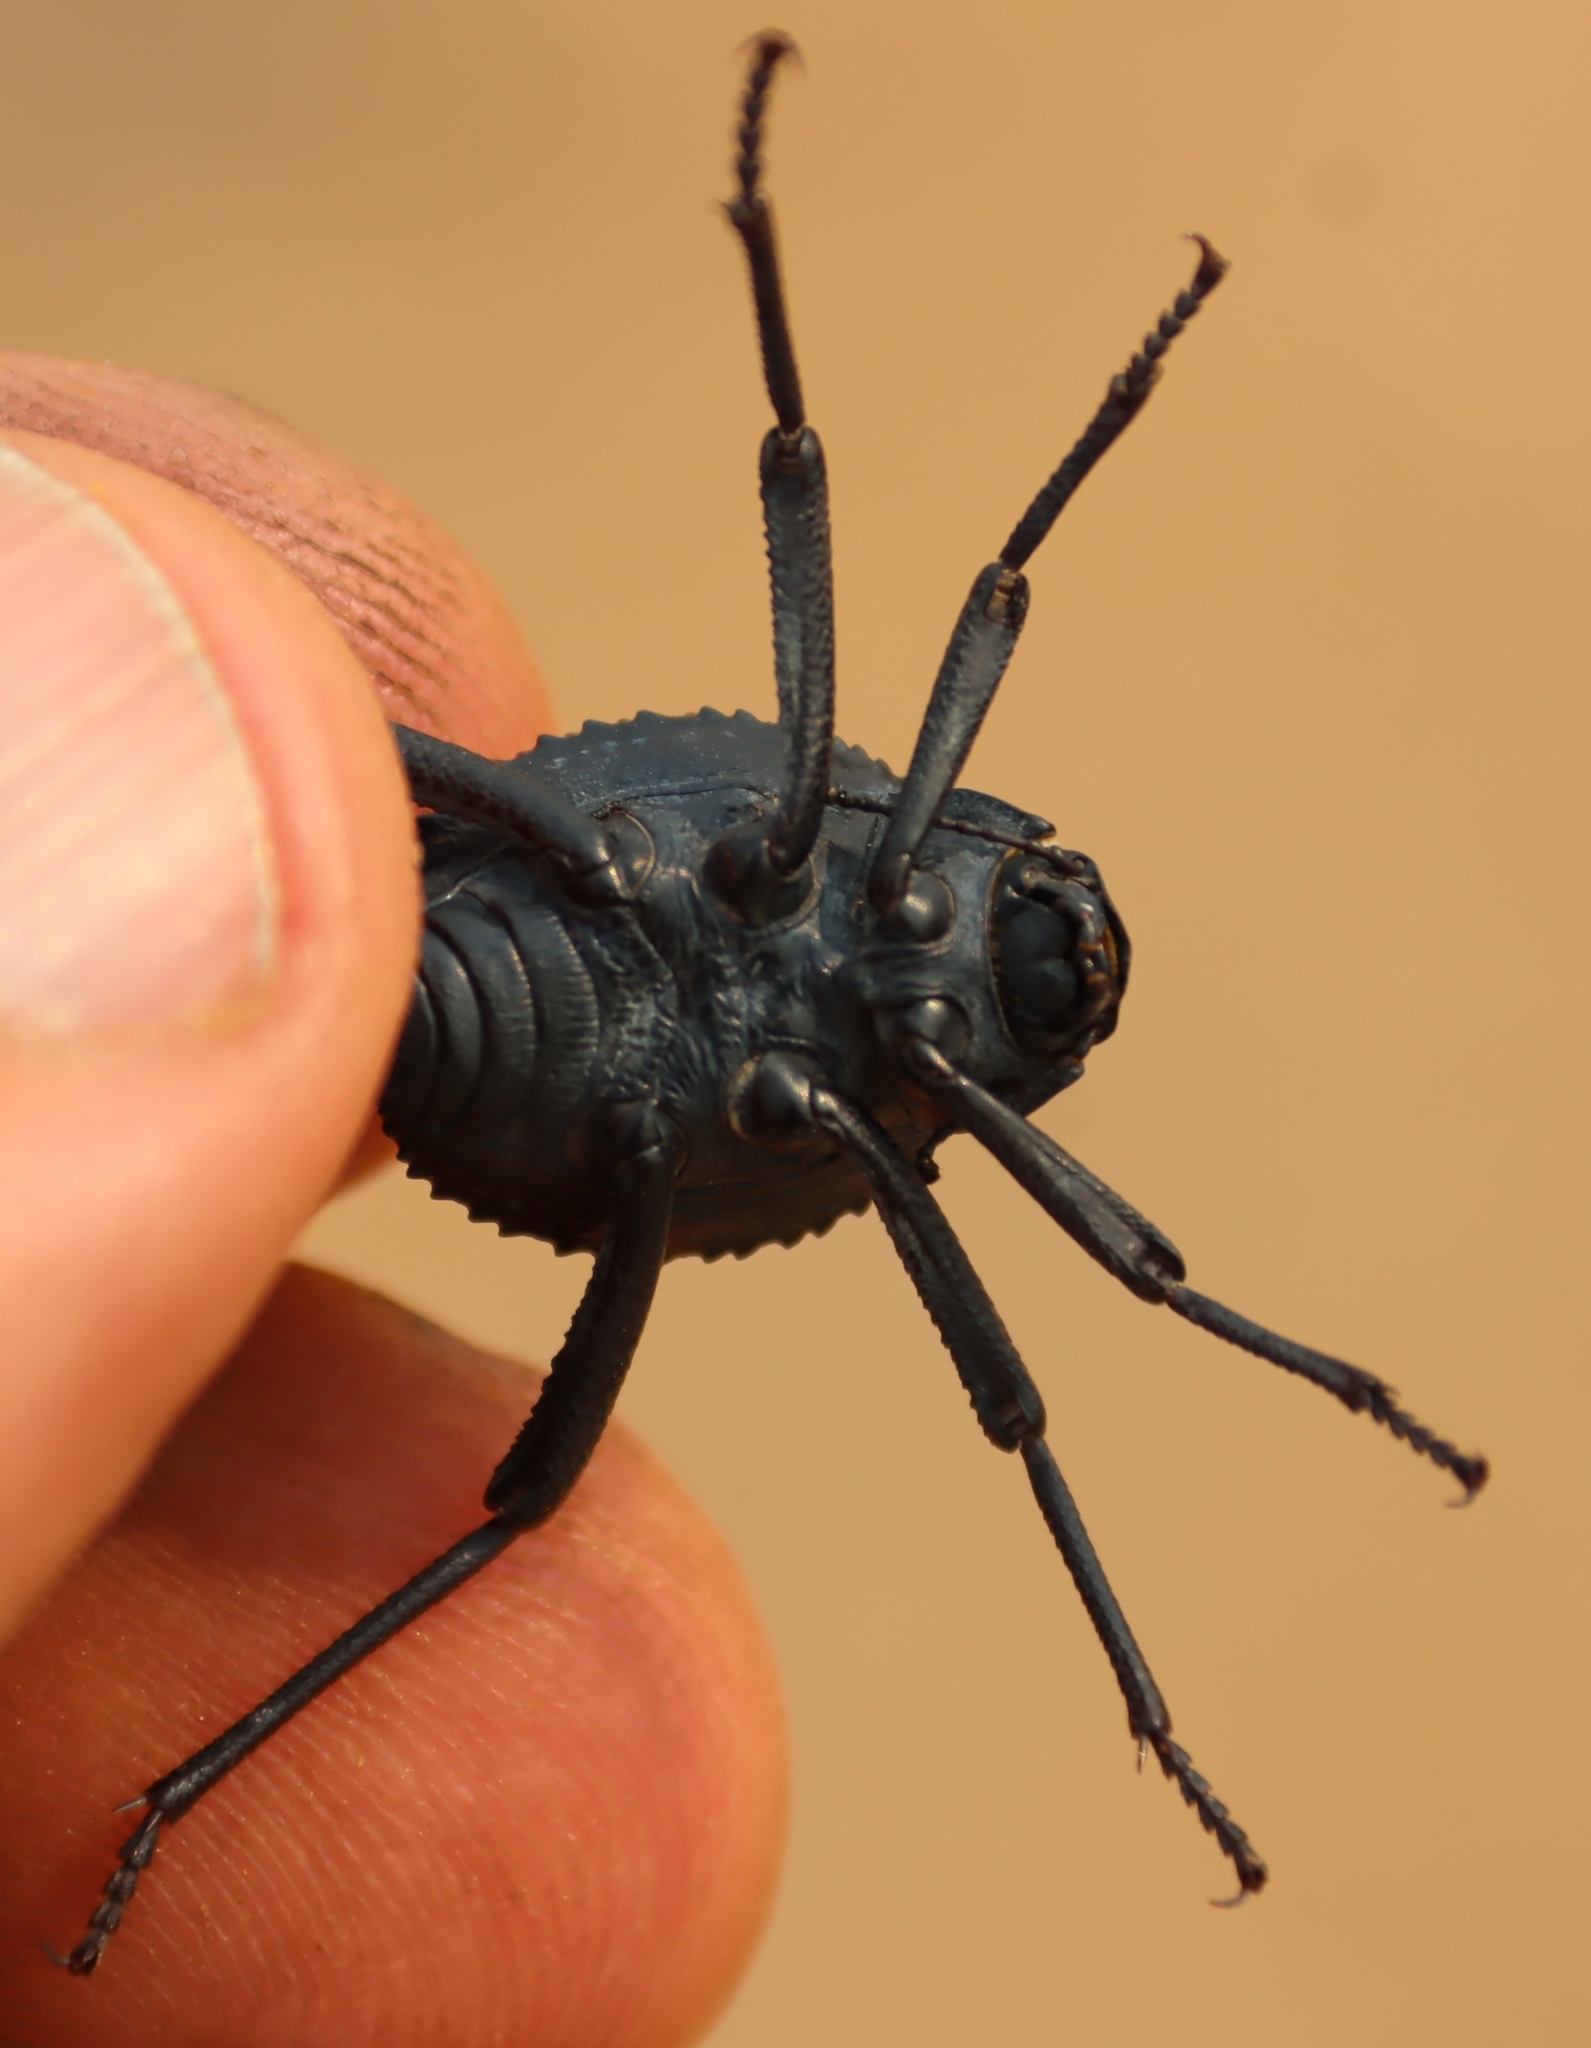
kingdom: Animalia
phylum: Arthropoda
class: Insecta
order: Coleoptera
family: Tenebrionidae
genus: Adesmia
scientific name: Adesmia
